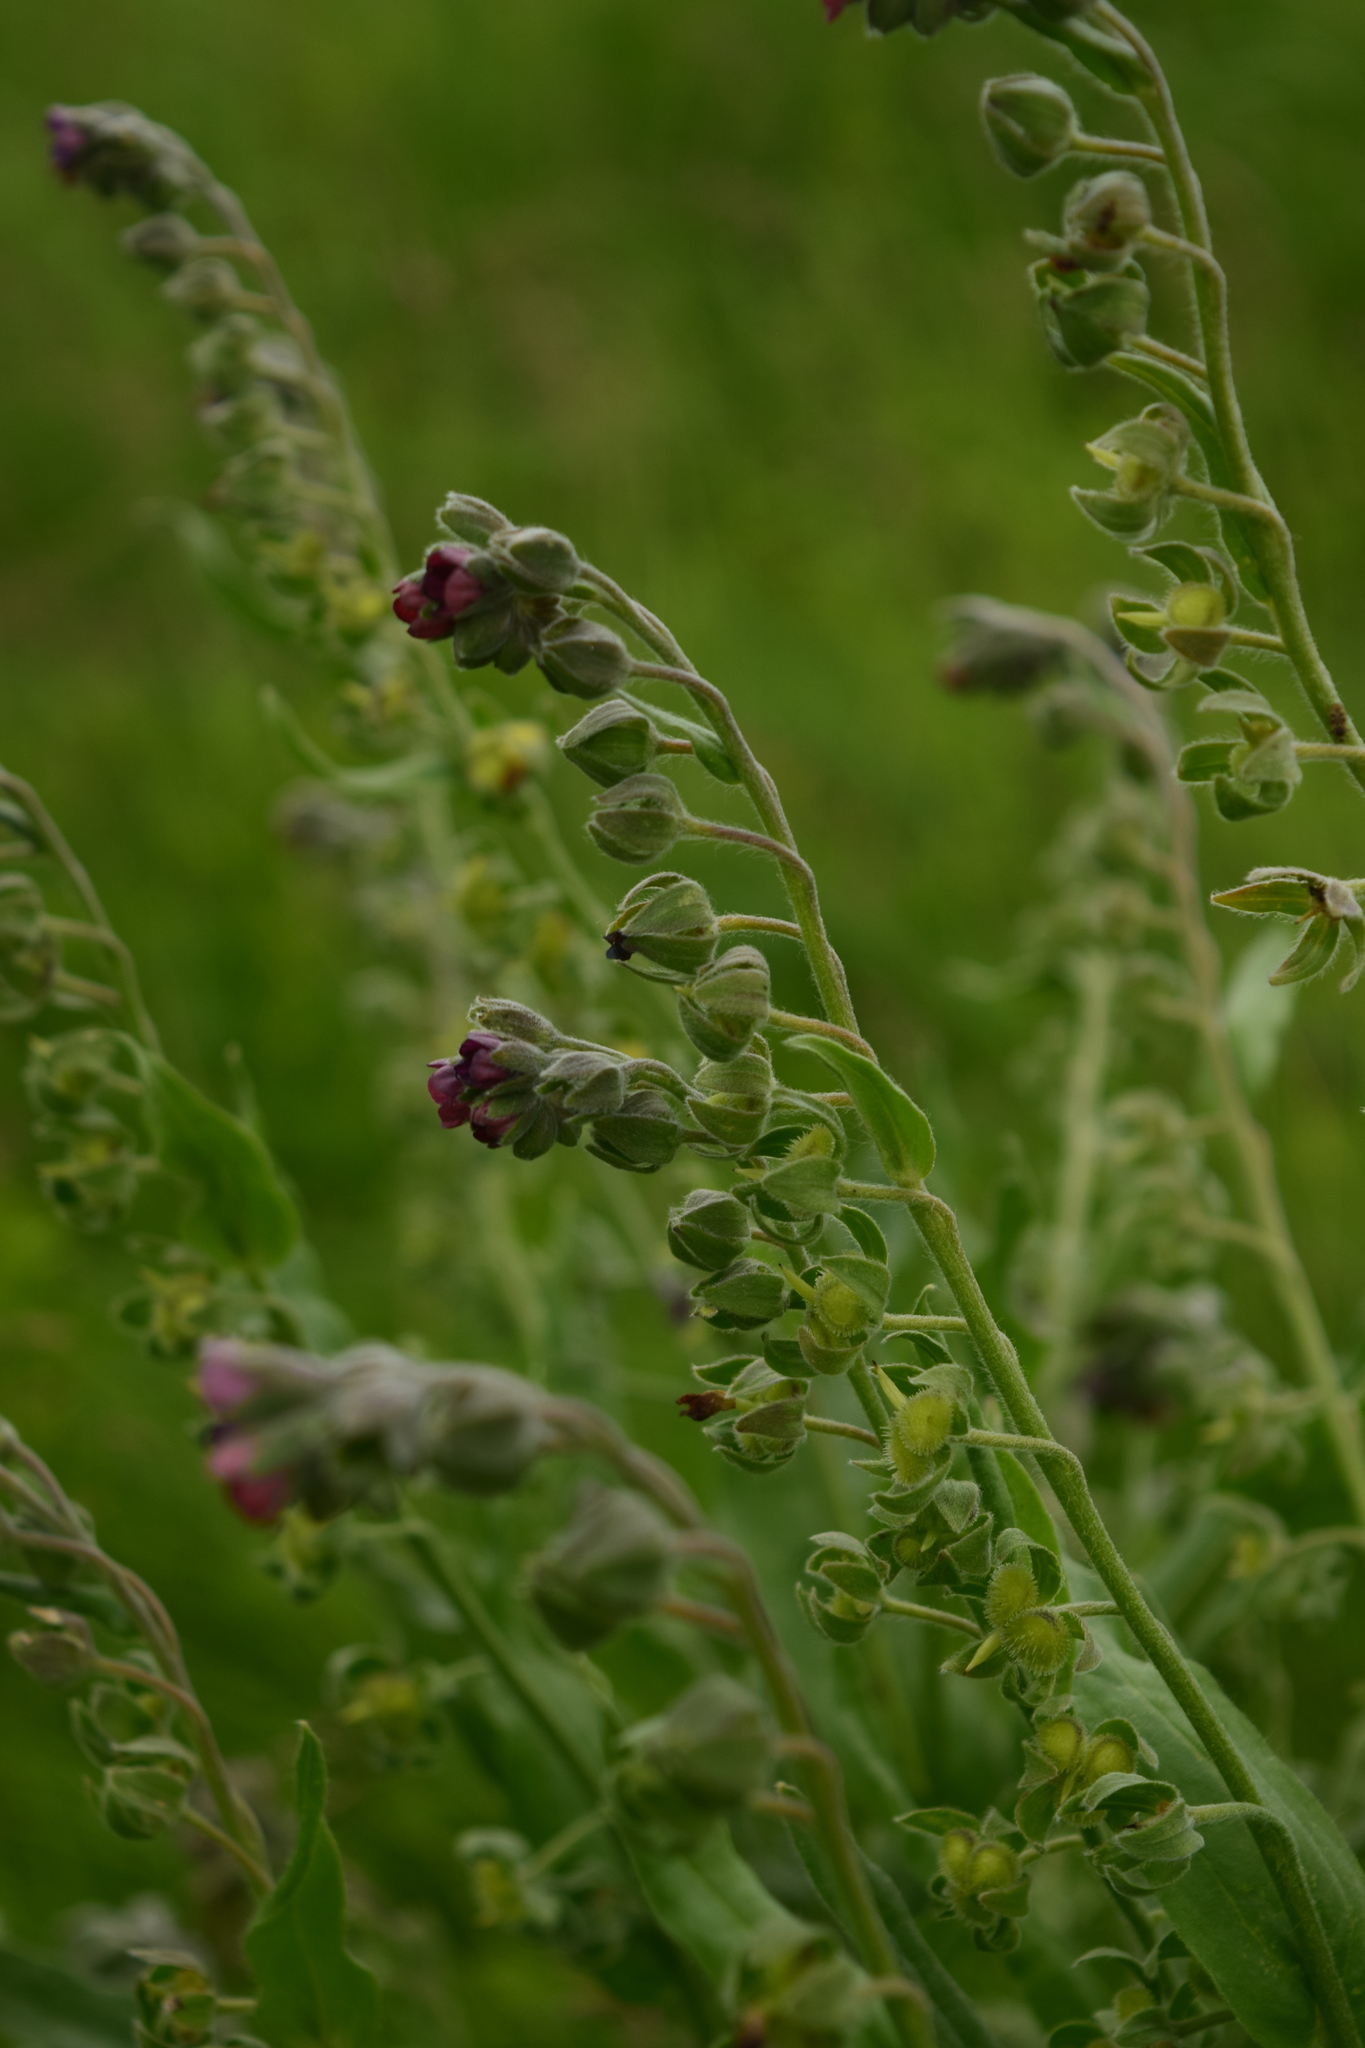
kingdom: Plantae
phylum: Tracheophyta
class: Magnoliopsida
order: Boraginales
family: Boraginaceae
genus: Cynoglossum
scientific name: Cynoglossum officinale
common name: Hound's-tongue
